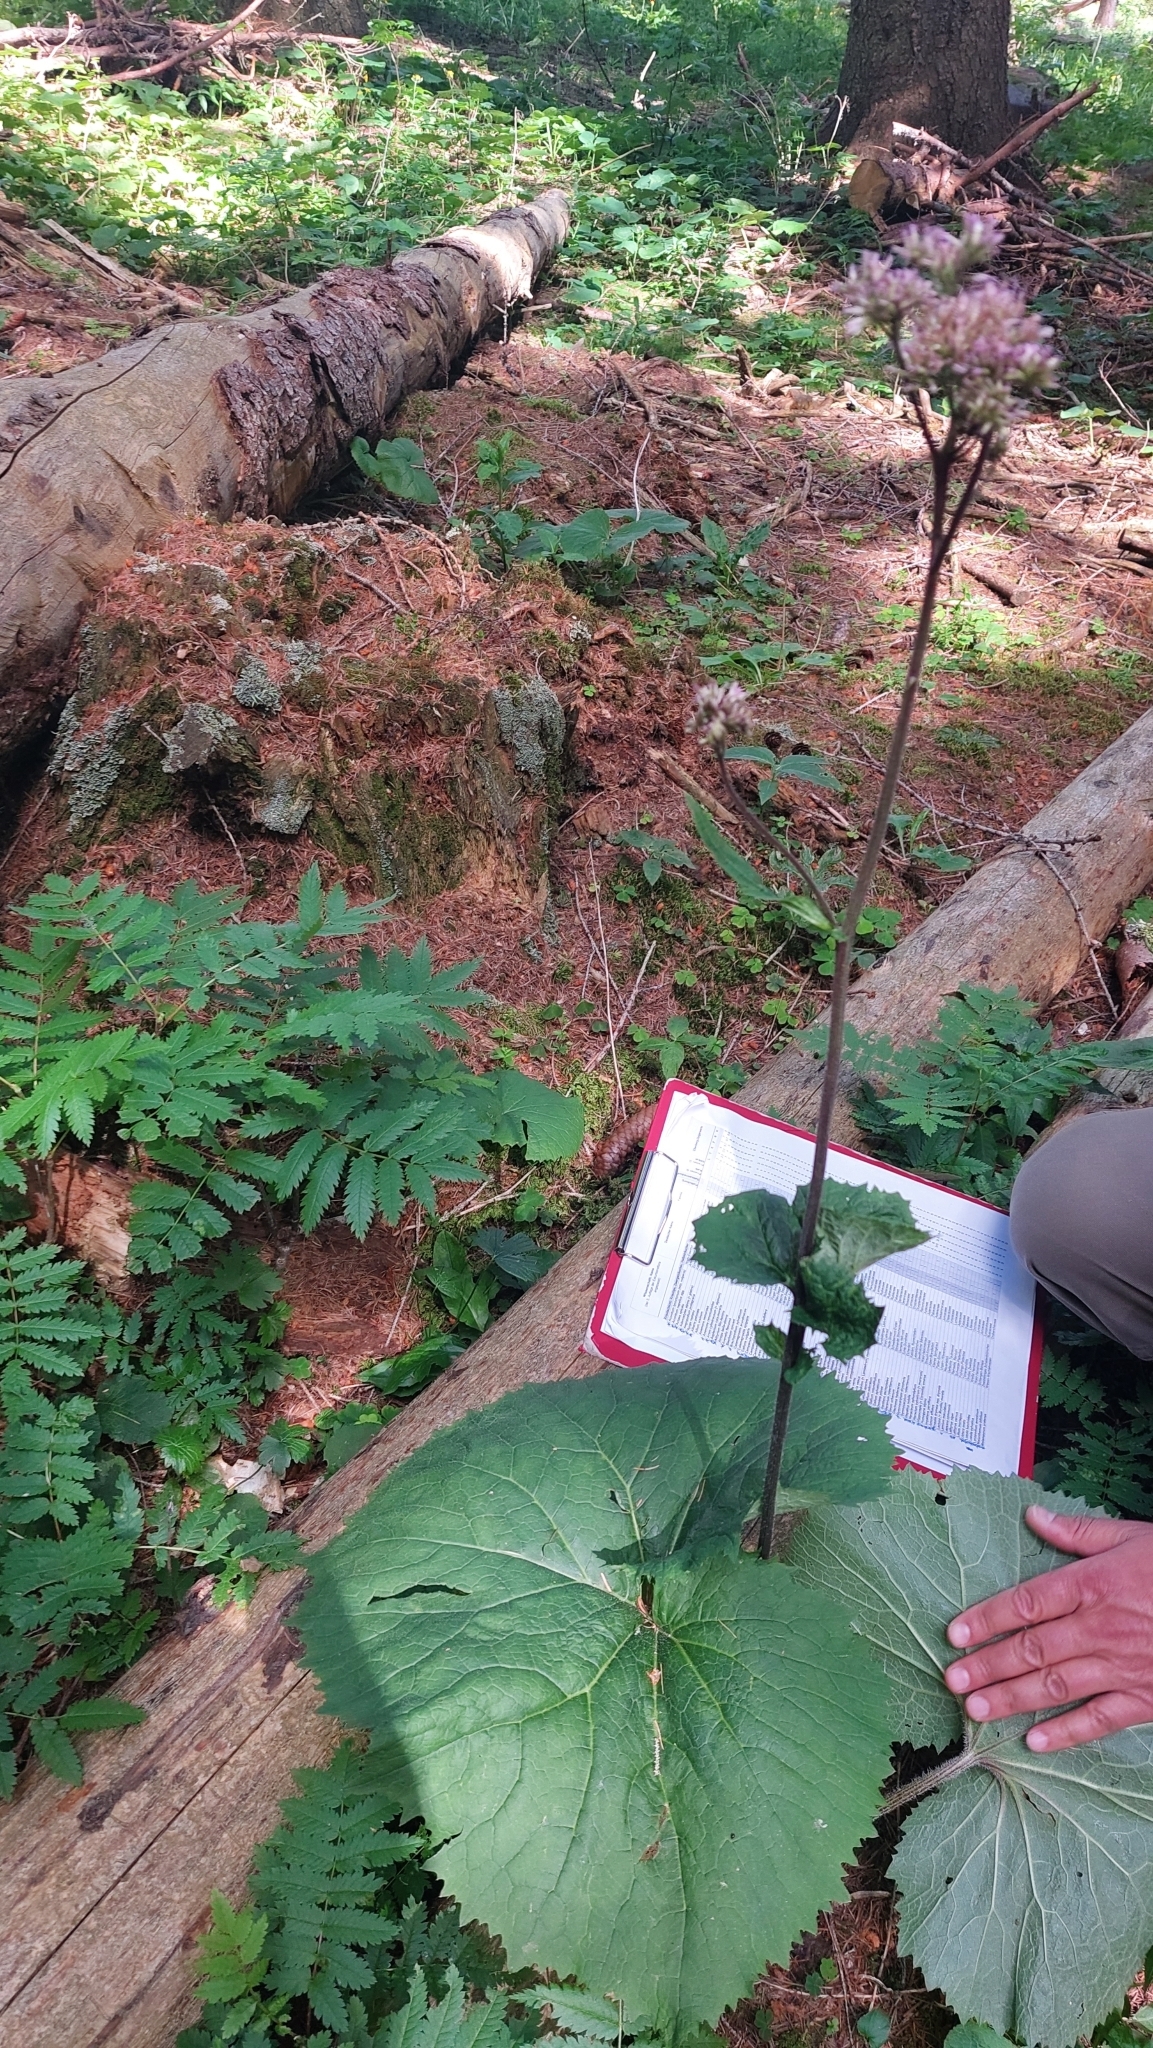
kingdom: Plantae
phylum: Tracheophyta
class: Magnoliopsida
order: Asterales
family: Asteraceae
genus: Adenostyles
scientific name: Adenostyles alliariae
